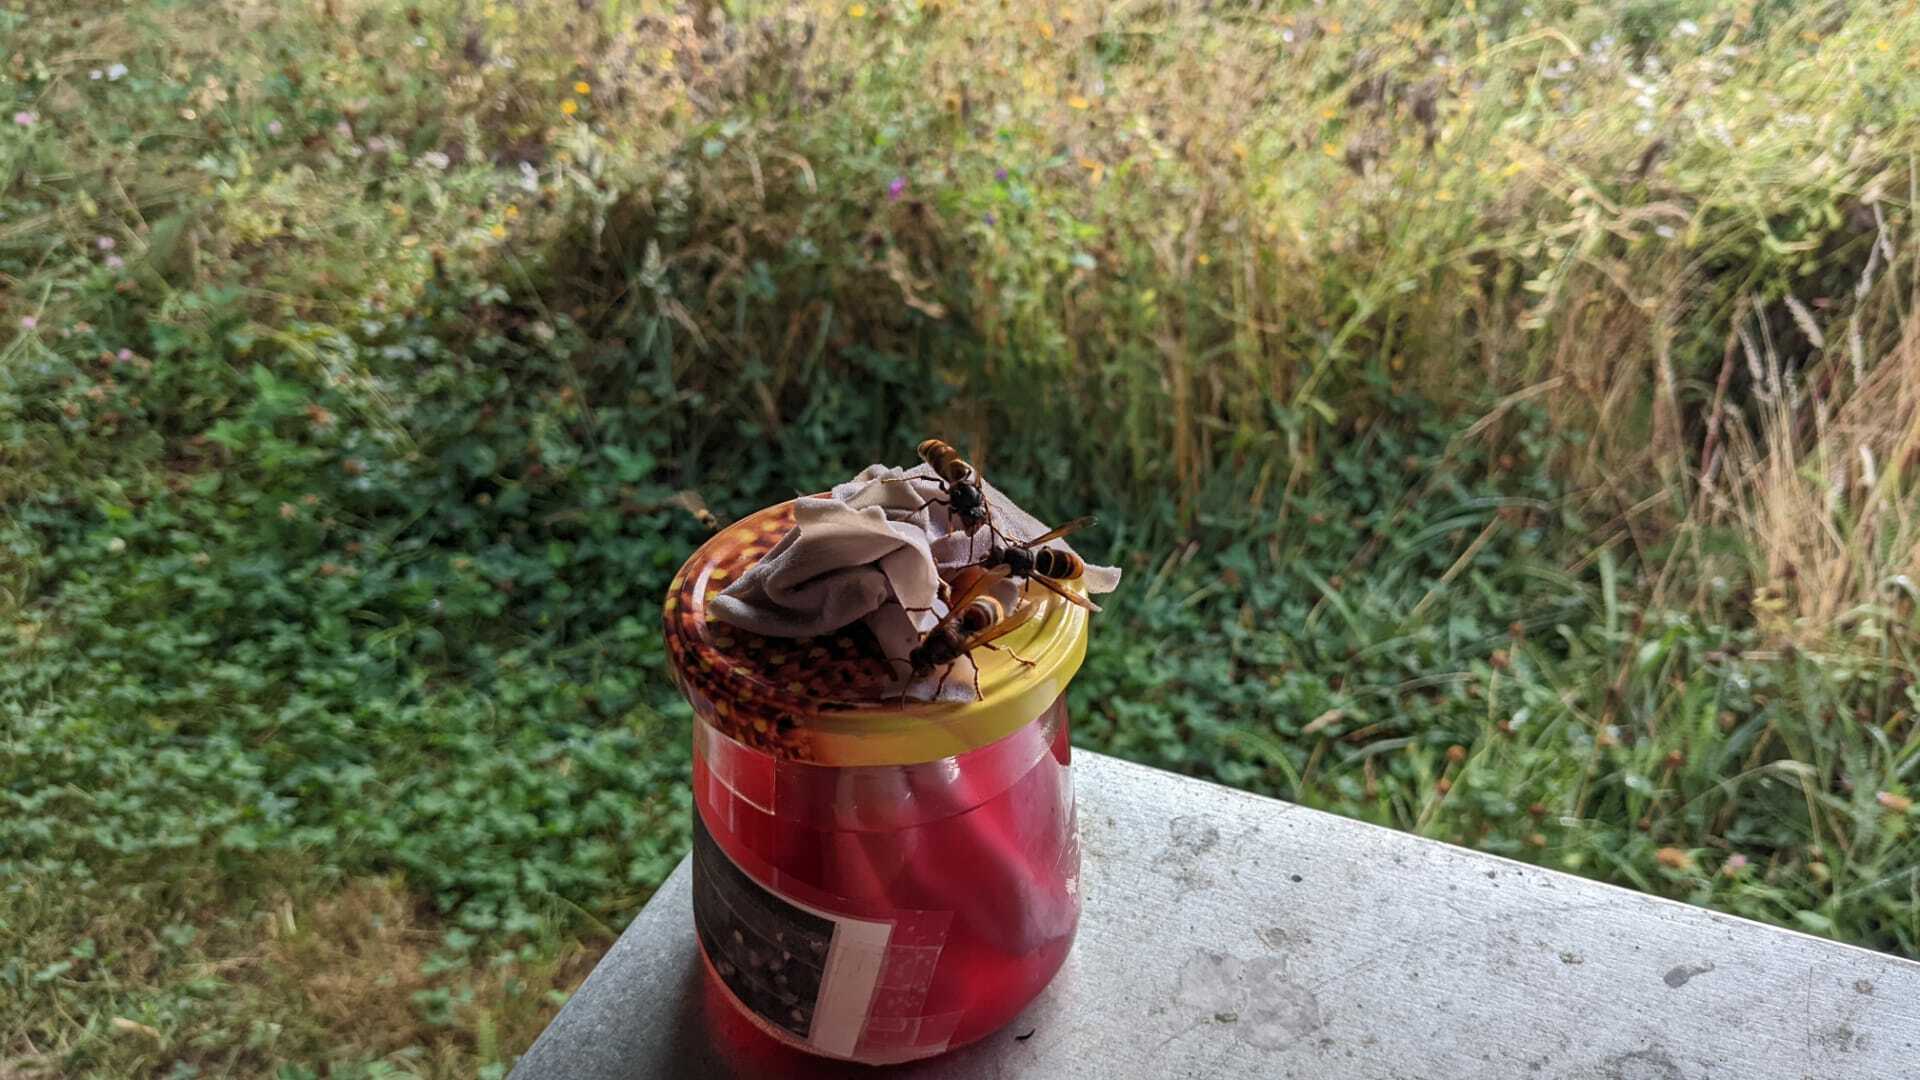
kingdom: Animalia
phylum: Arthropoda
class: Insecta
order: Hymenoptera
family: Vespidae
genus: Vespa
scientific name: Vespa velutina
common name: Asian hornet
